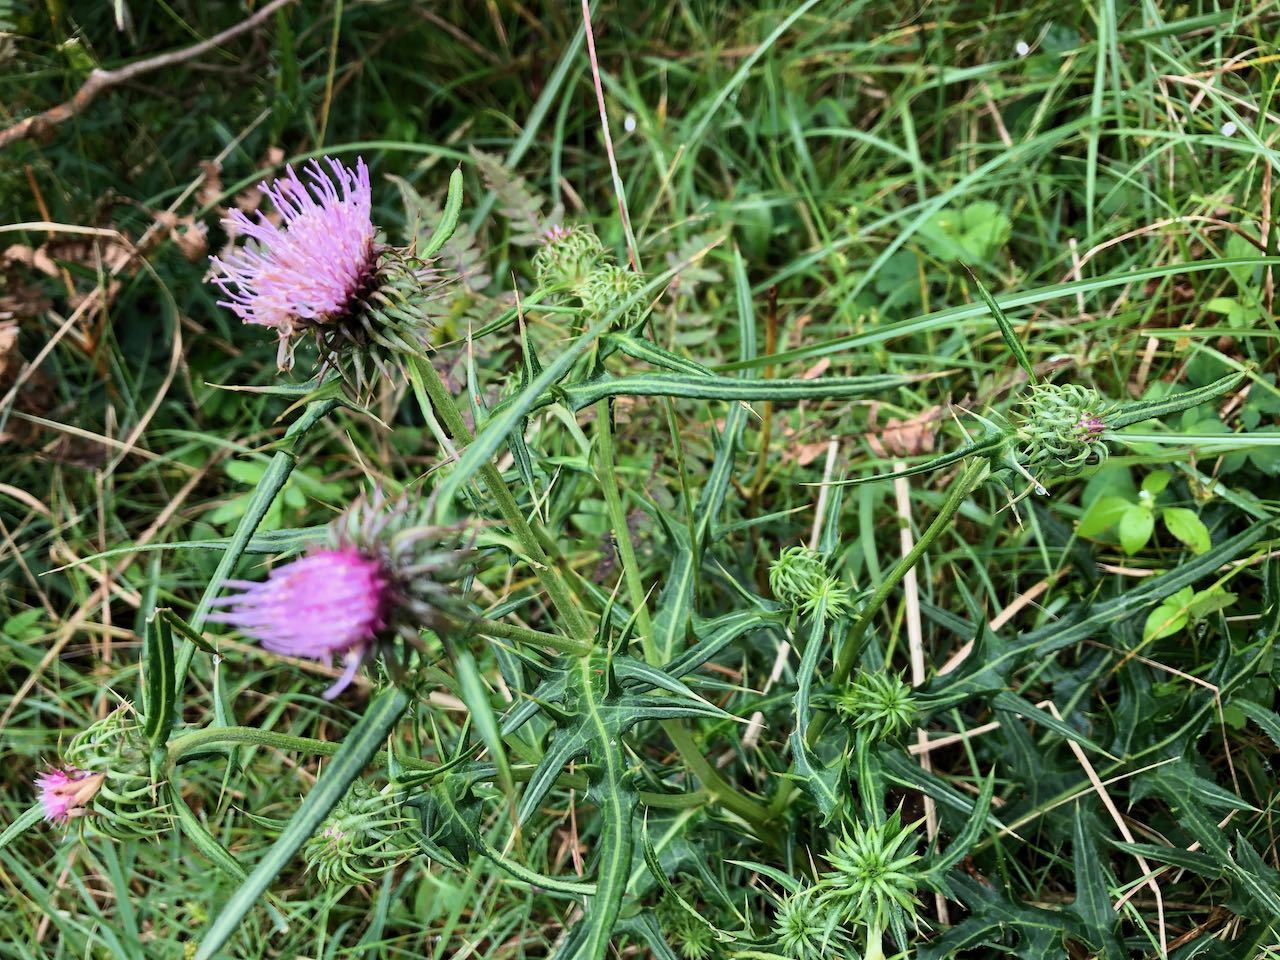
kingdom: Plantae
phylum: Tracheophyta
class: Magnoliopsida
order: Asterales
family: Asteraceae
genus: Cirsium
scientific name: Cirsium nipponicum
